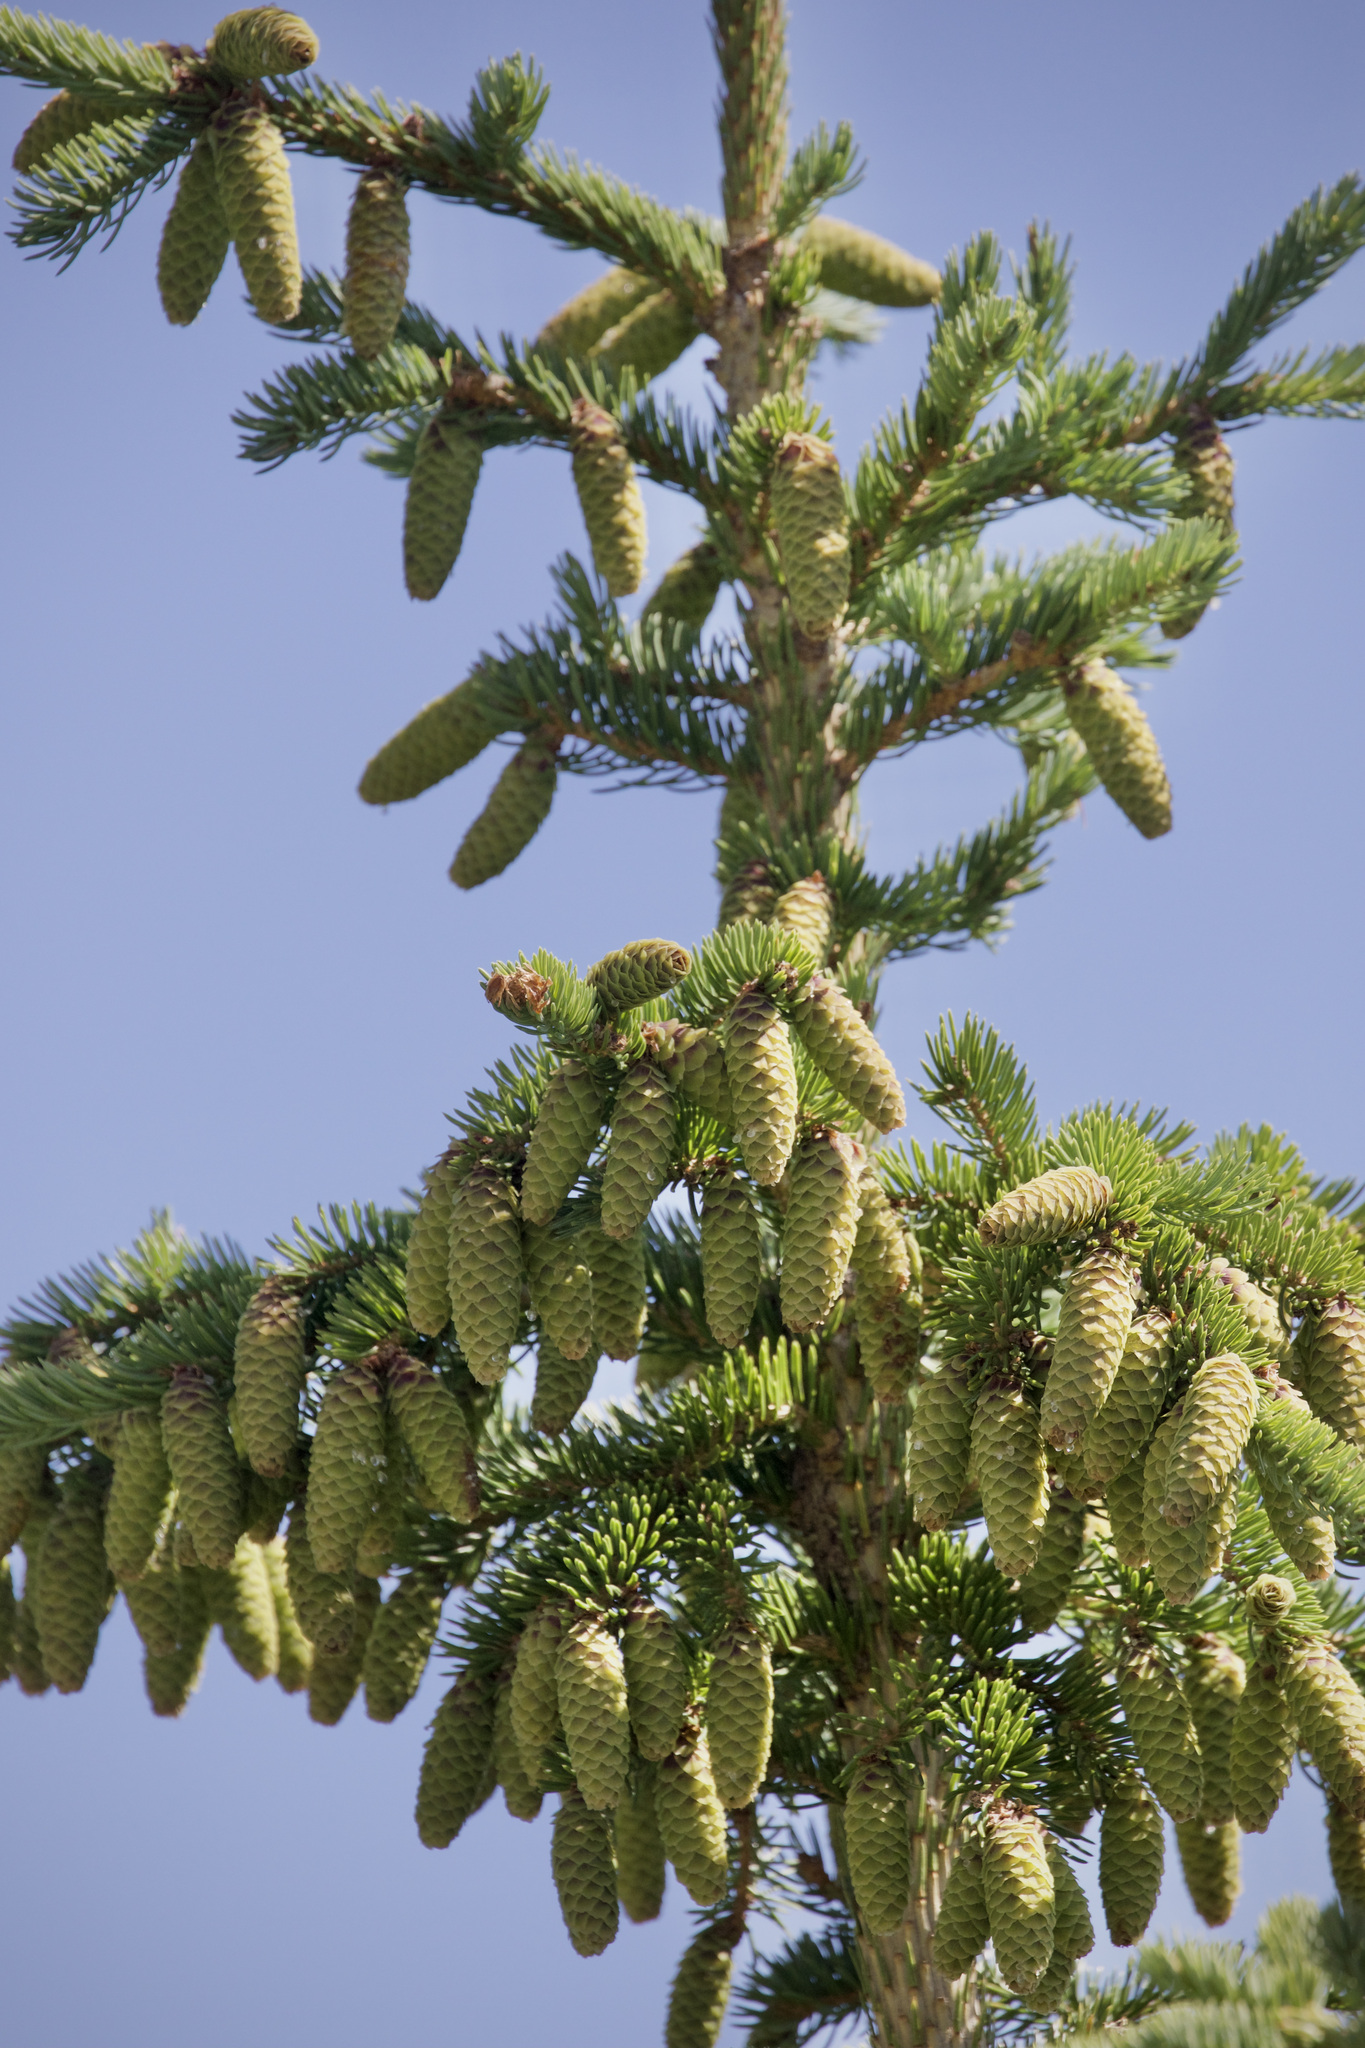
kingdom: Plantae
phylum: Tracheophyta
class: Pinopsida
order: Pinales
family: Pinaceae
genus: Picea
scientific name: Picea engelmannii
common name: Engelmann spruce
